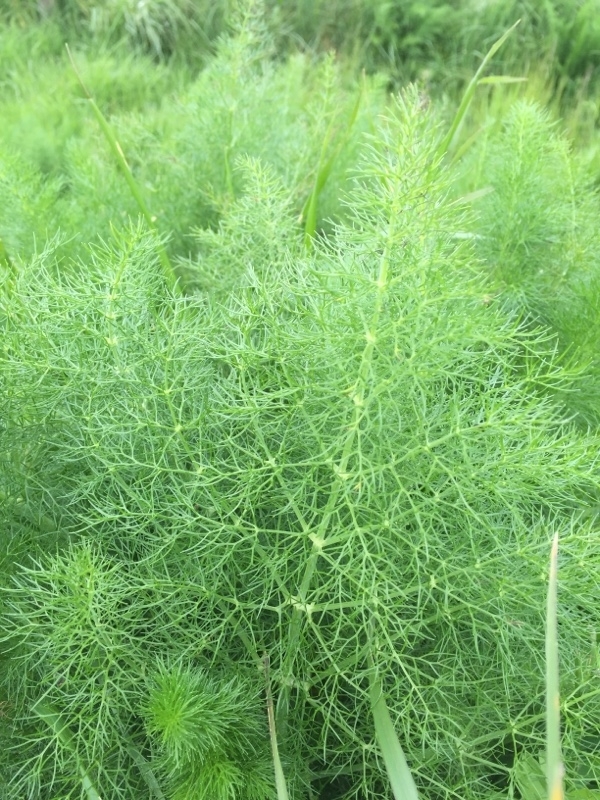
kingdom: Plantae
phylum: Tracheophyta
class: Magnoliopsida
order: Apiales
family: Apiaceae
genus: Foeniculum
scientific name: Foeniculum vulgare
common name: Fennel
